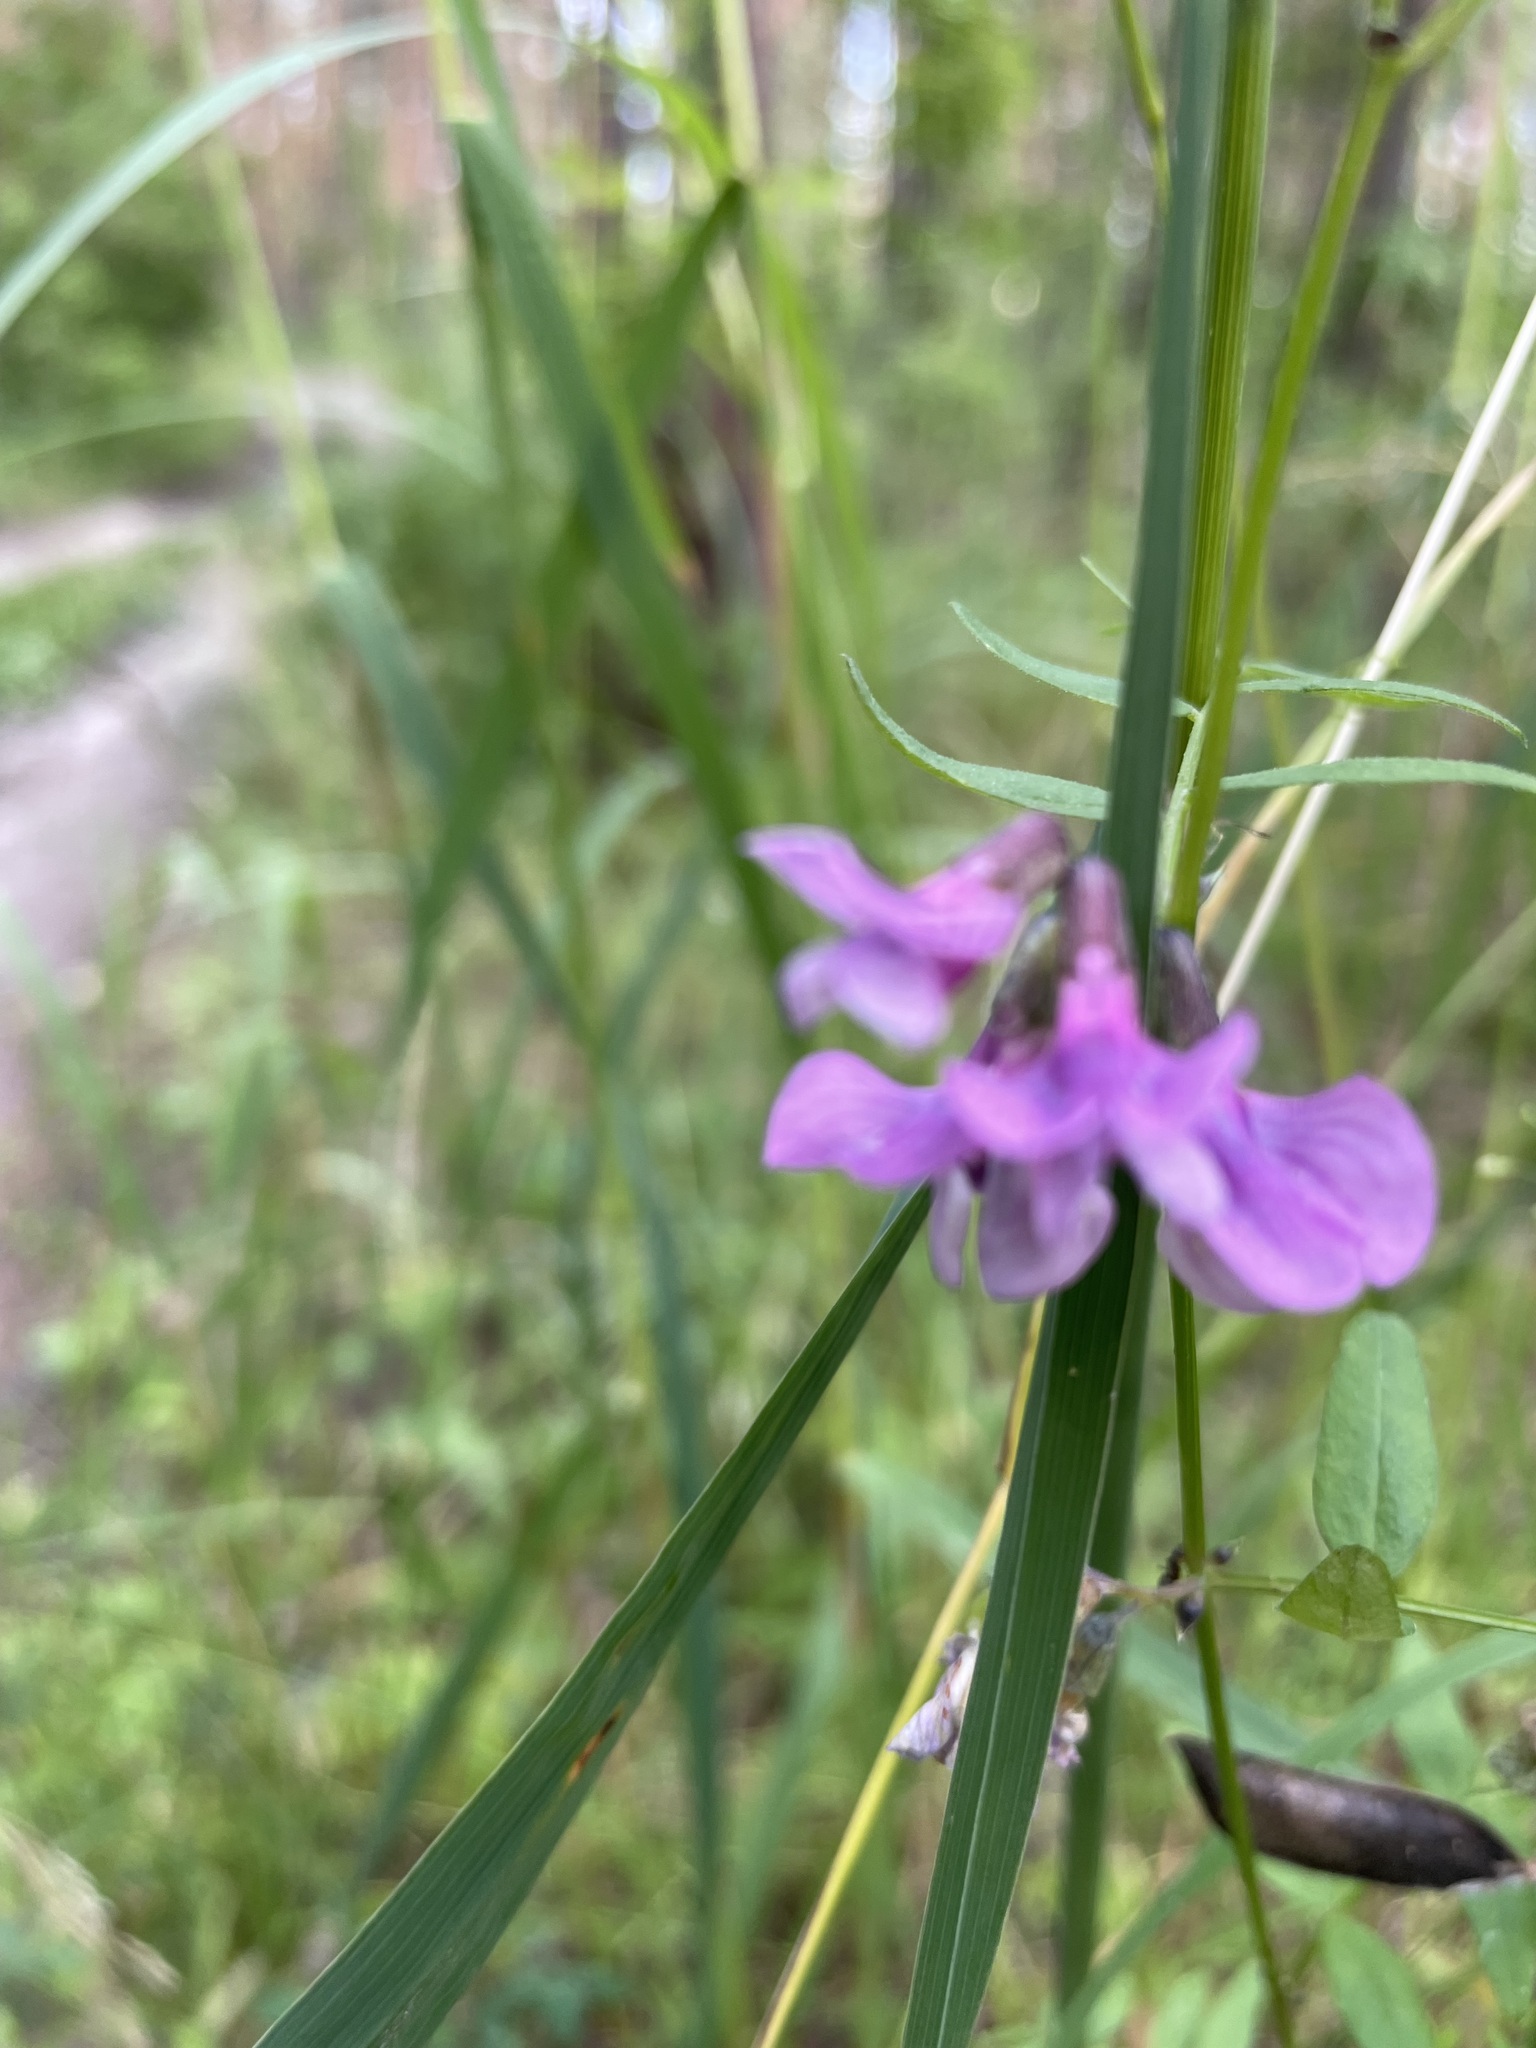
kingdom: Plantae
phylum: Tracheophyta
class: Magnoliopsida
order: Fabales
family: Fabaceae
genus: Vicia
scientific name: Vicia sepium
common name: Bush vetch
